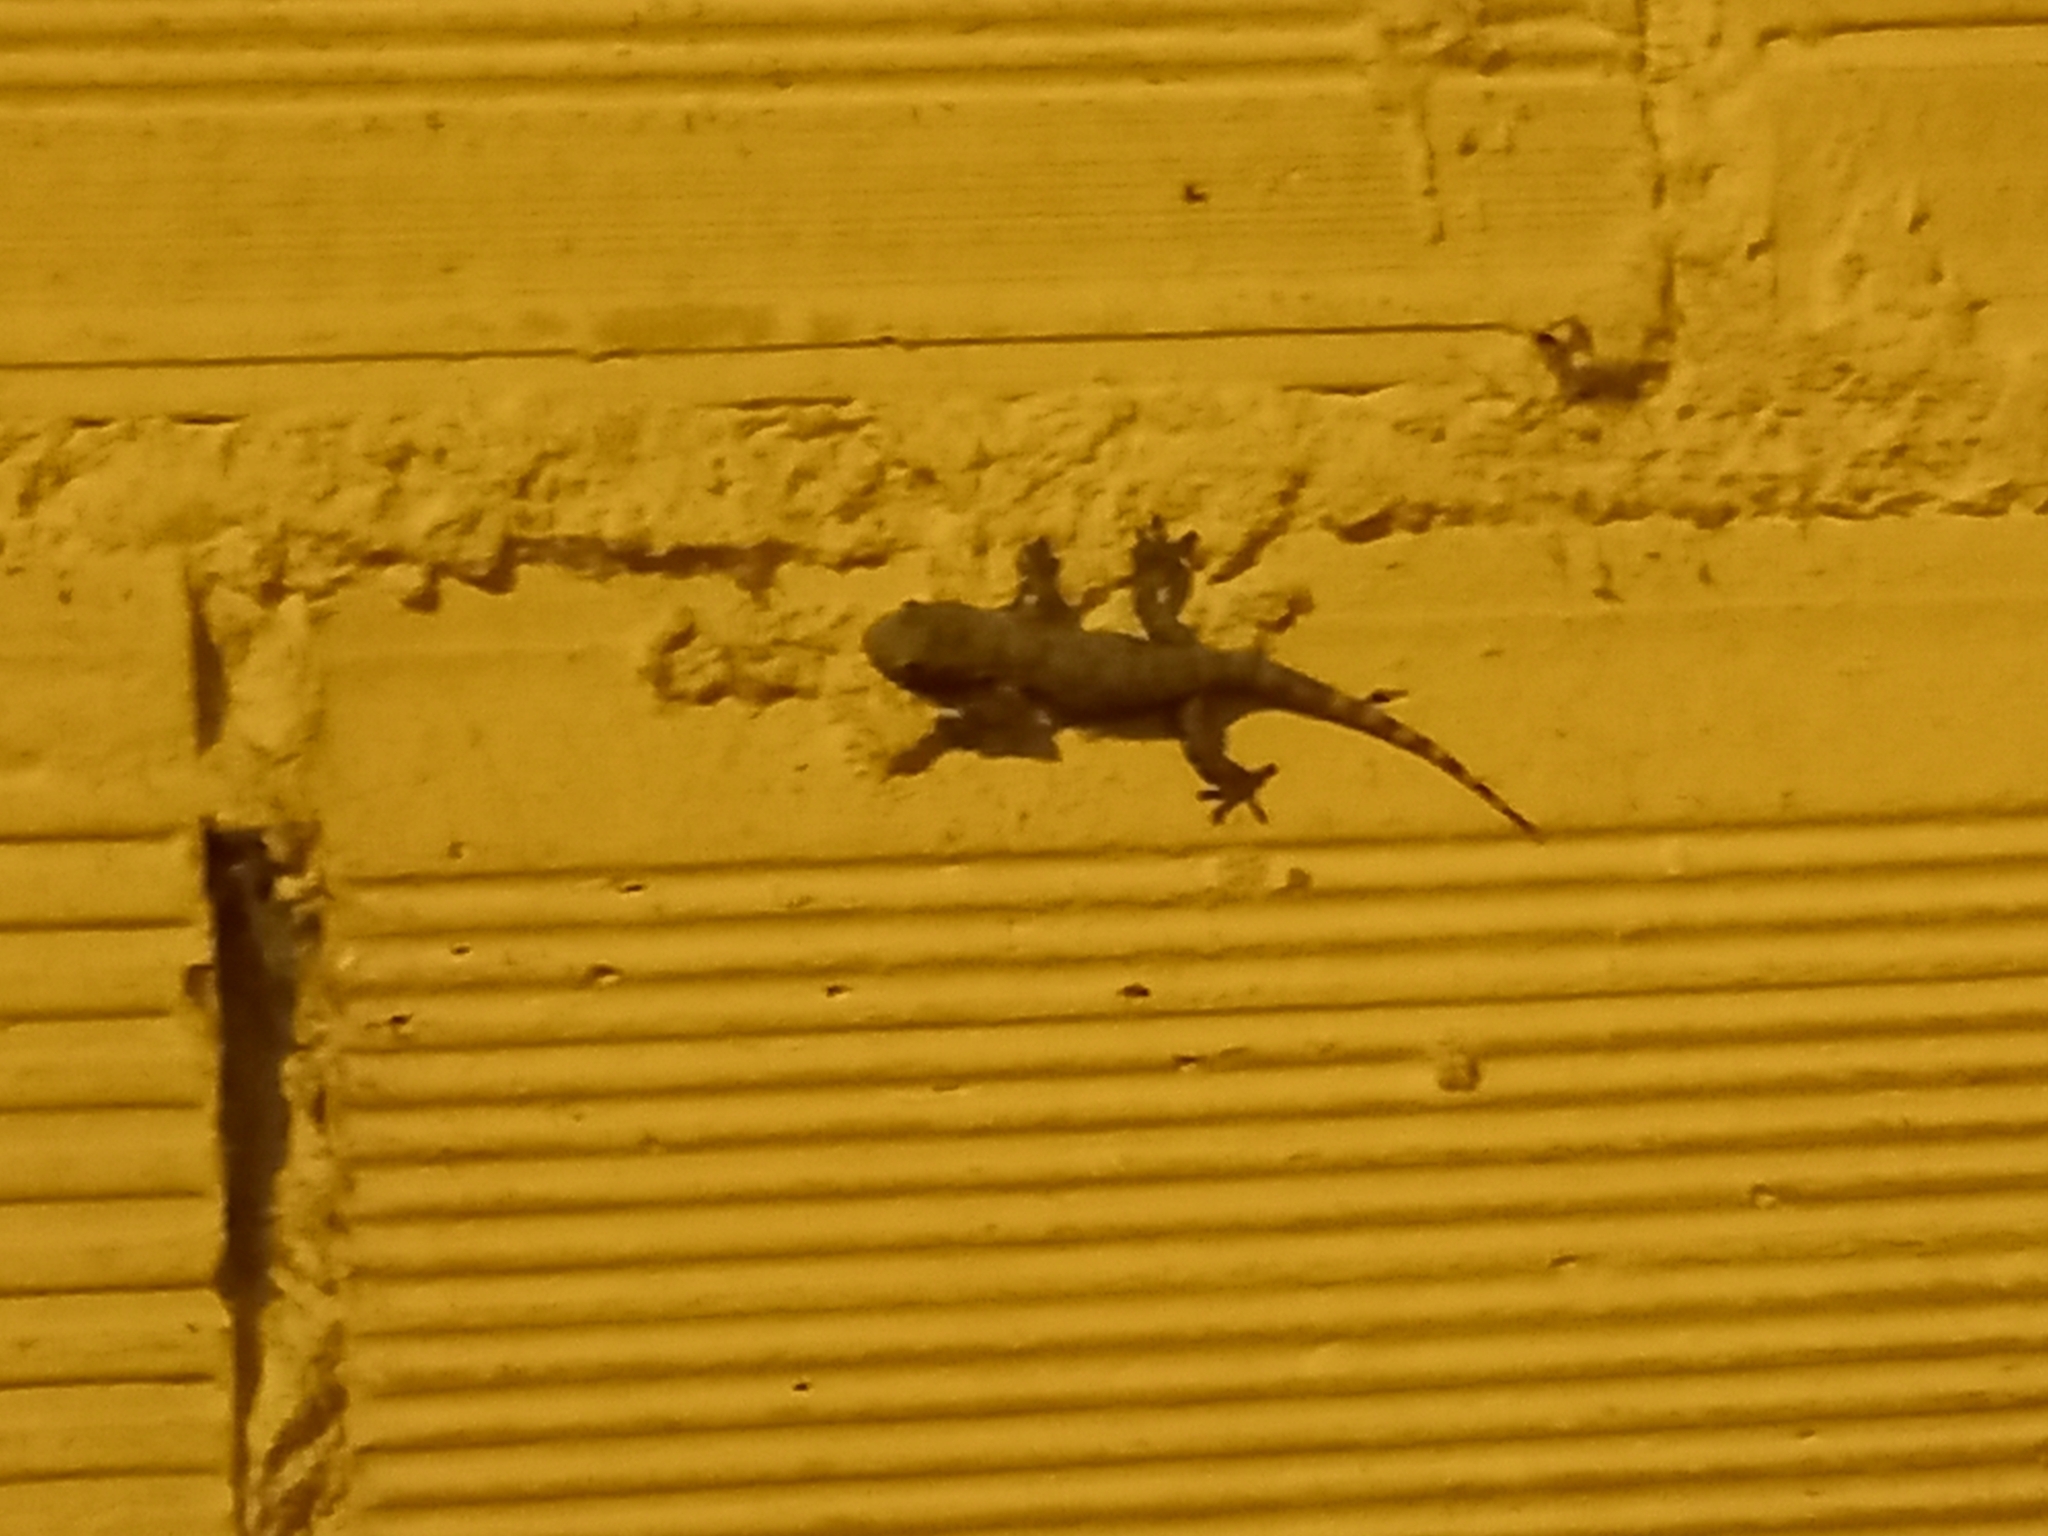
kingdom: Animalia
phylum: Chordata
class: Squamata
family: Phyllodactylidae
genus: Tarentola
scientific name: Tarentola mauritanica
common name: Moorish gecko
